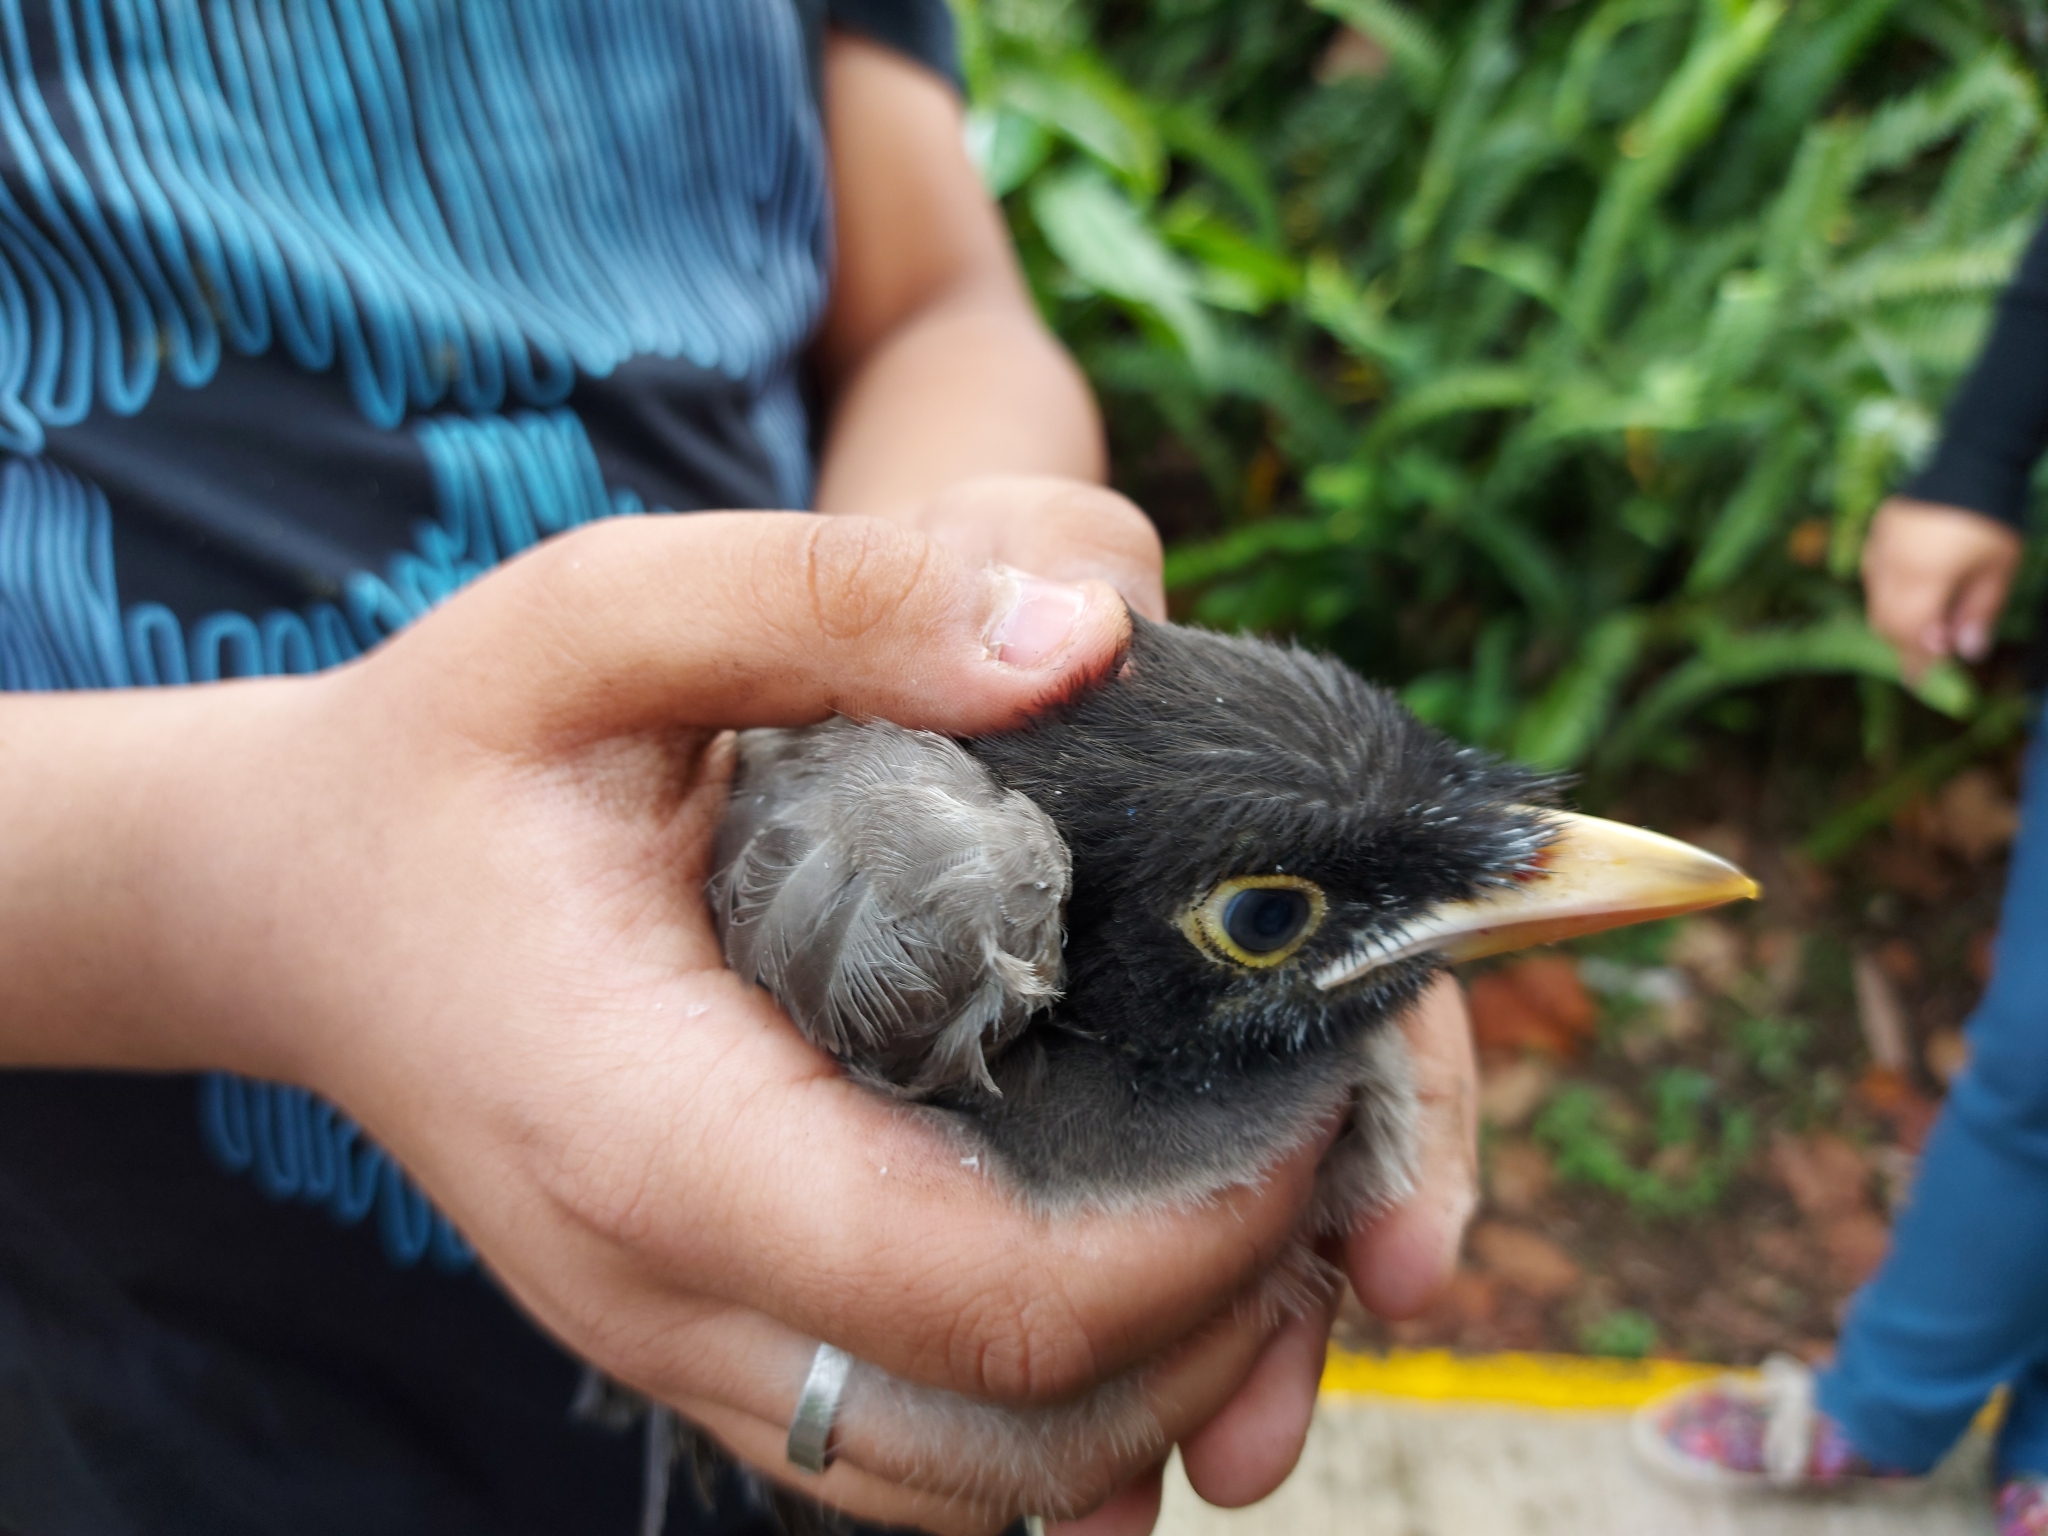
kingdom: Animalia
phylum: Chordata
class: Aves
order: Passeriformes
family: Corvidae
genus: Psilorhinus
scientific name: Psilorhinus morio
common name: Brown jay
